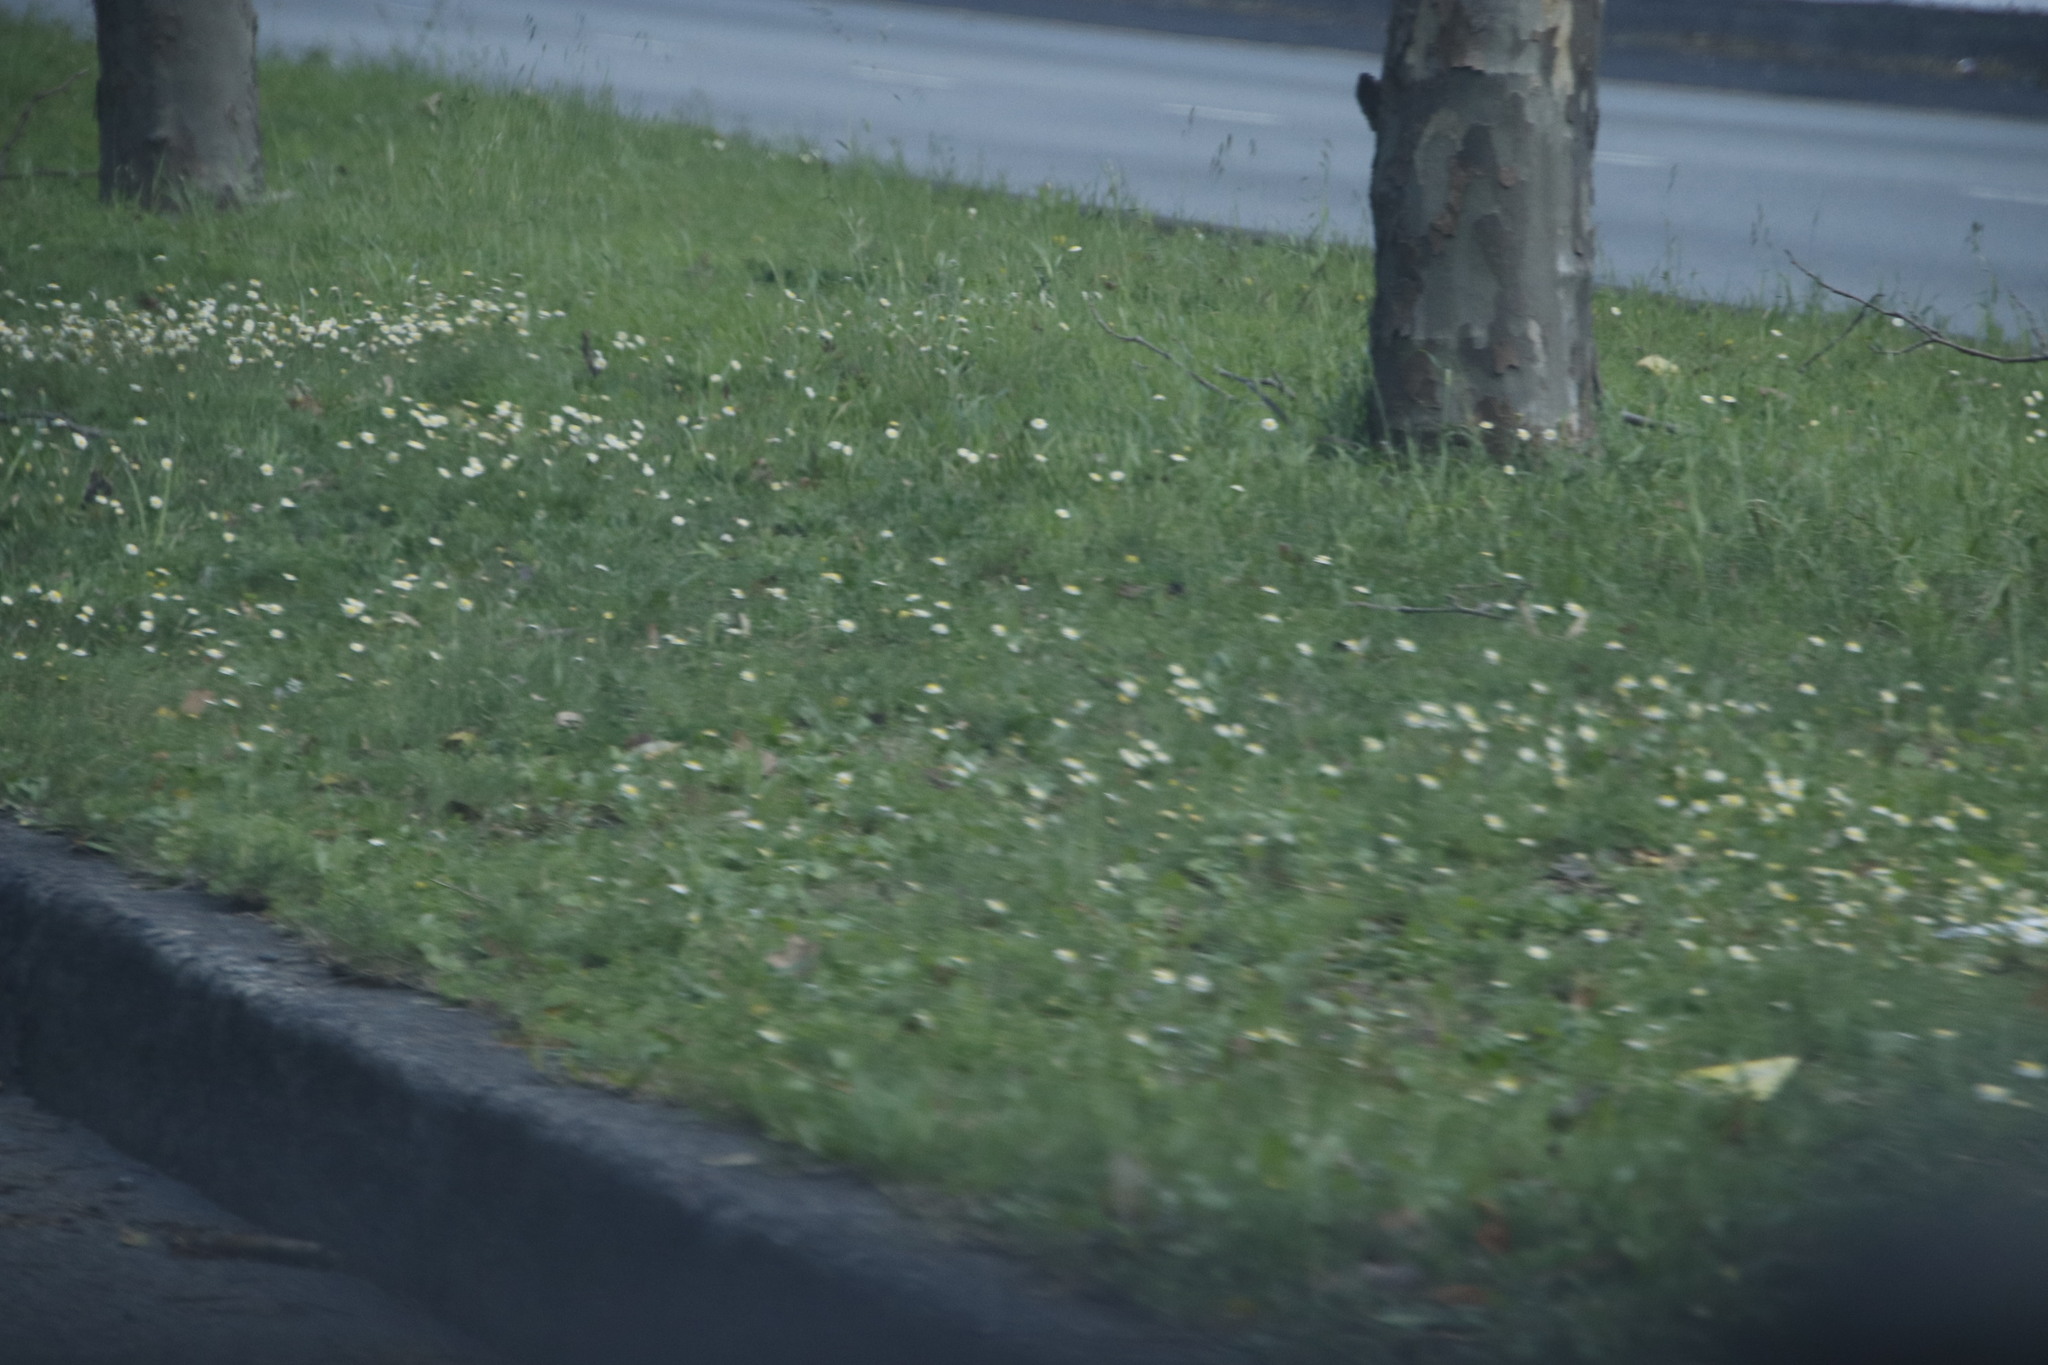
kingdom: Plantae
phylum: Tracheophyta
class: Magnoliopsida
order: Asterales
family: Asteraceae
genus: Cotula
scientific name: Cotula turbinata
